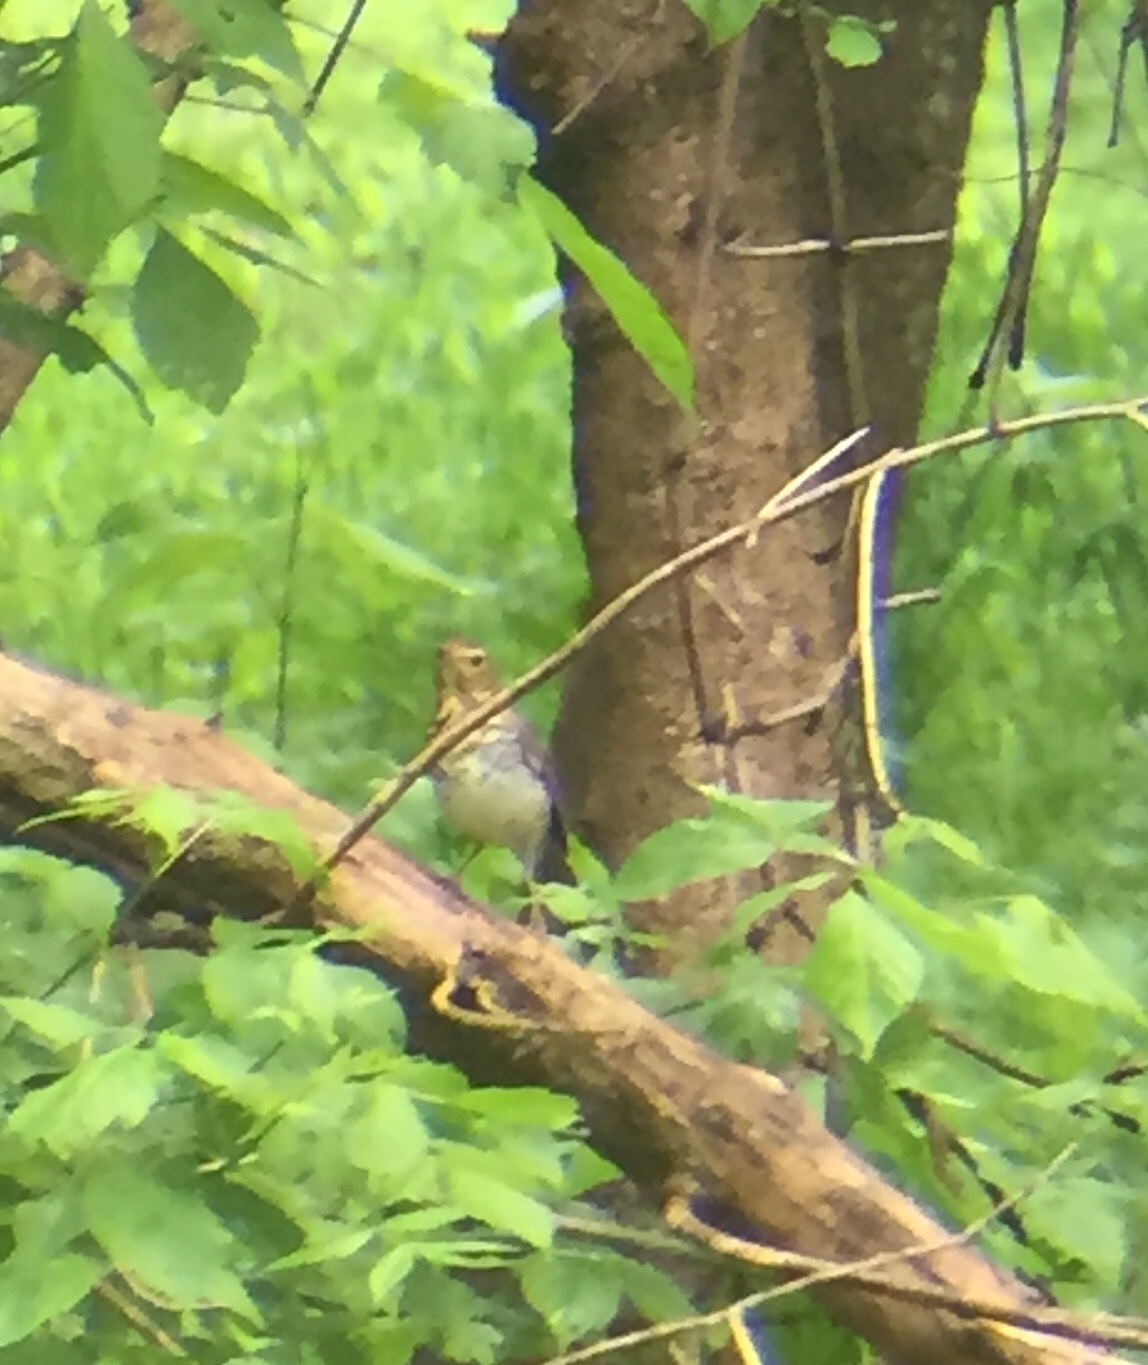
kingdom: Animalia
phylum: Chordata
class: Aves
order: Passeriformes
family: Turdidae
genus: Catharus
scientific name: Catharus ustulatus
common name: Swainson's thrush
